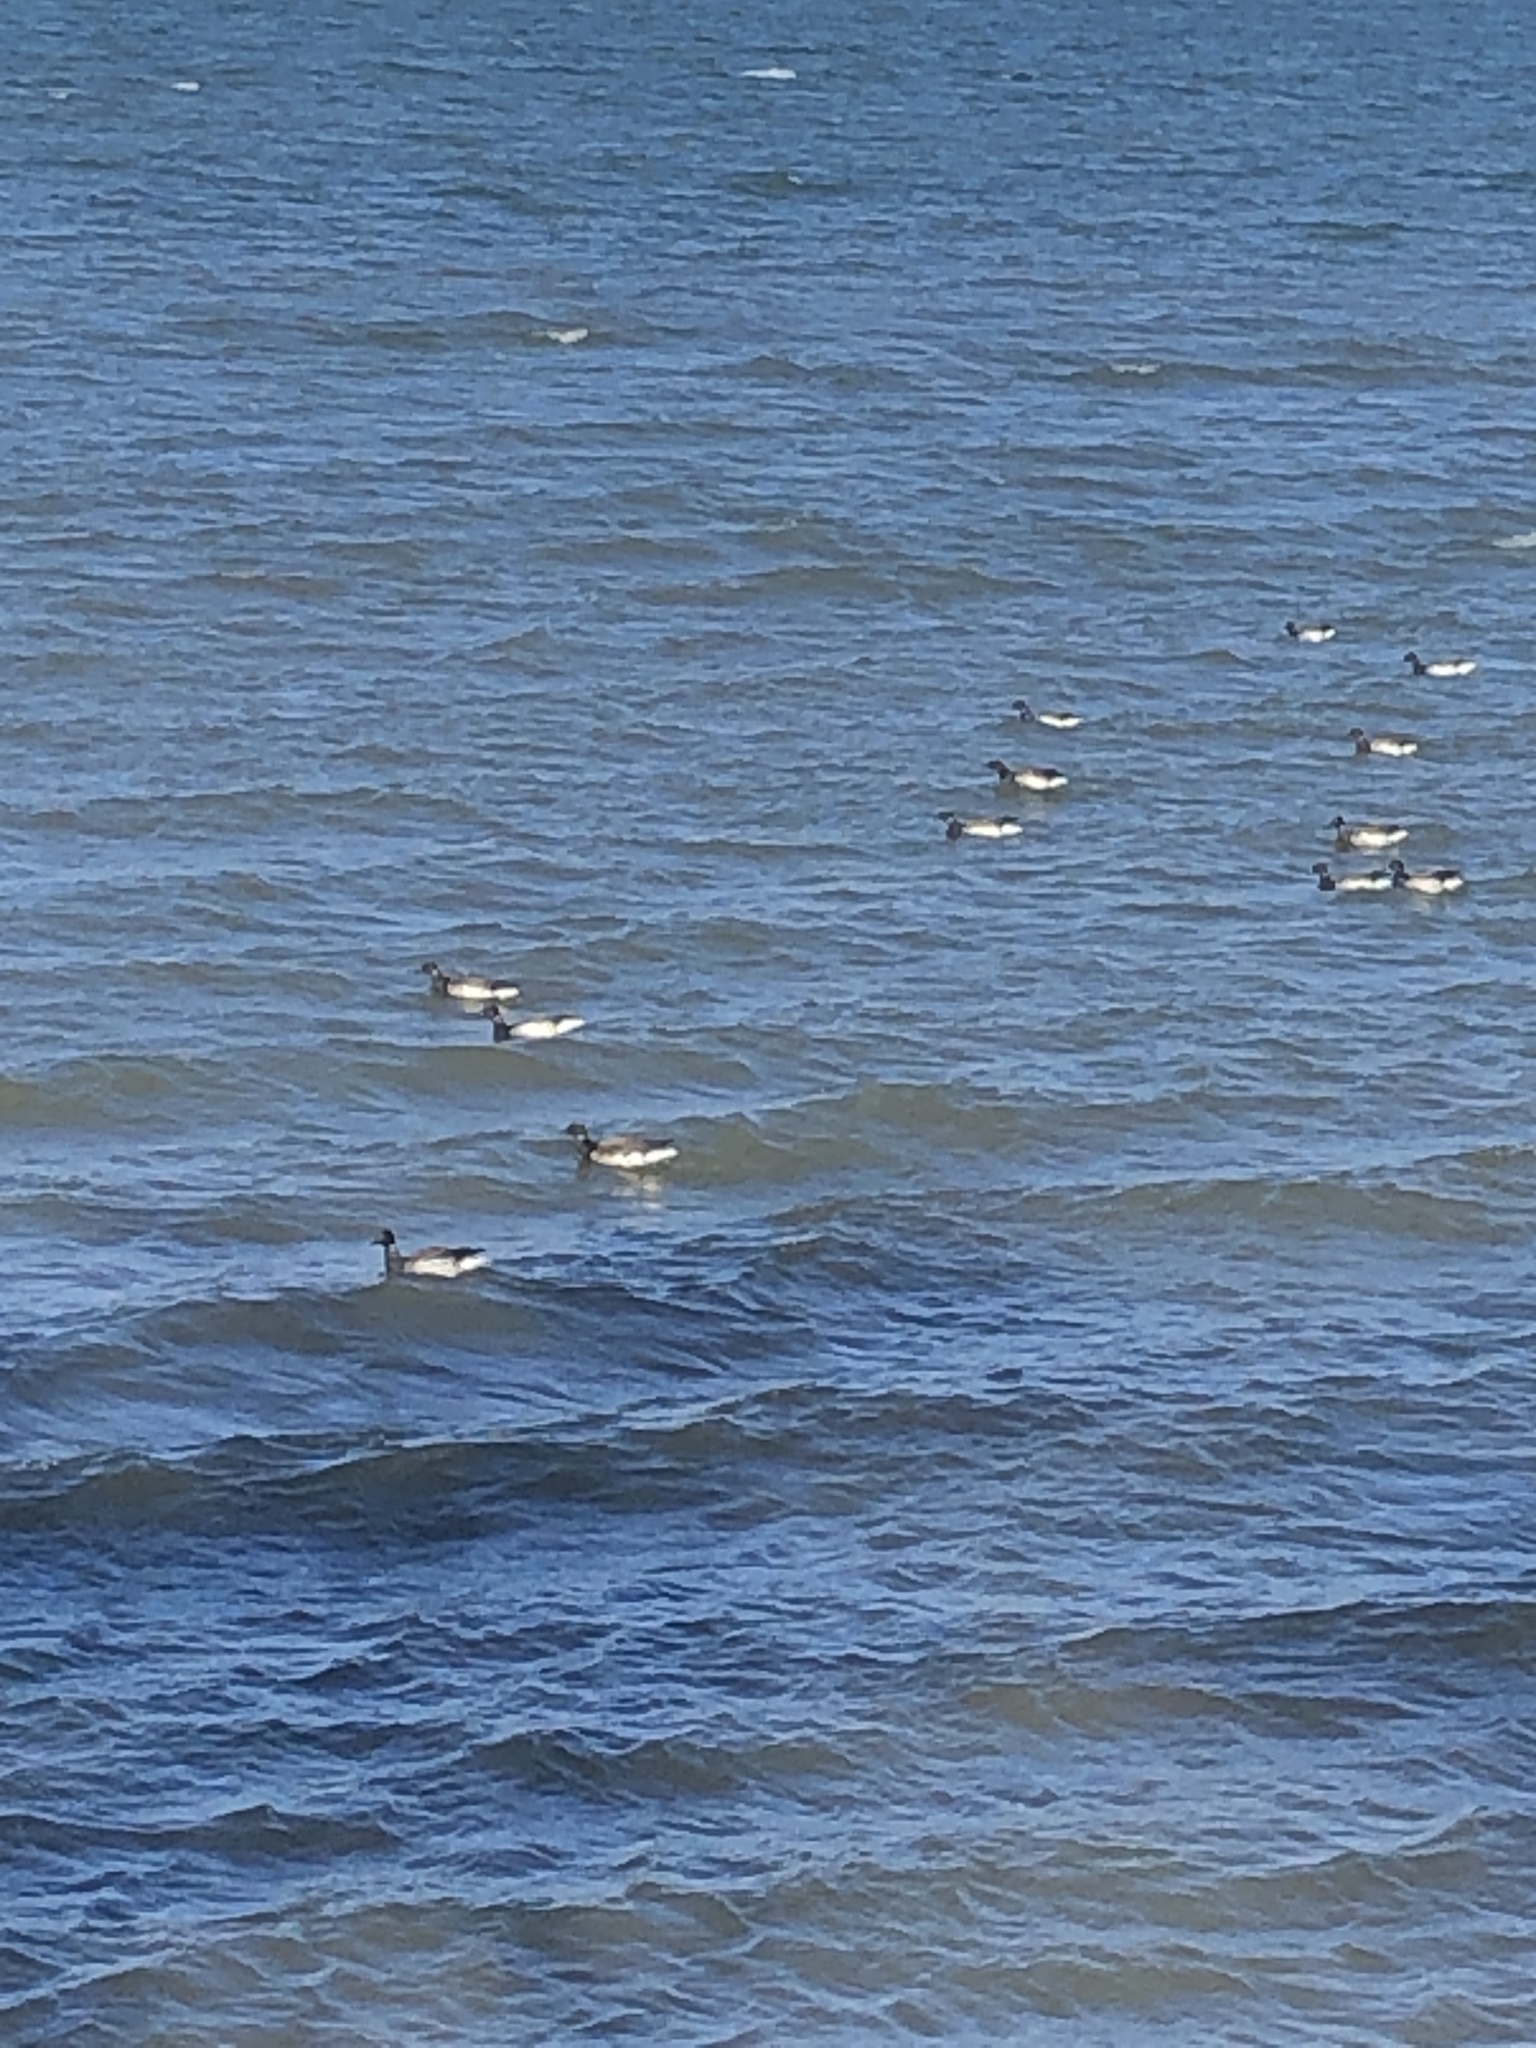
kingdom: Animalia
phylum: Chordata
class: Aves
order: Anseriformes
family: Anatidae
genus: Branta
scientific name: Branta bernicla
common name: Brant goose
